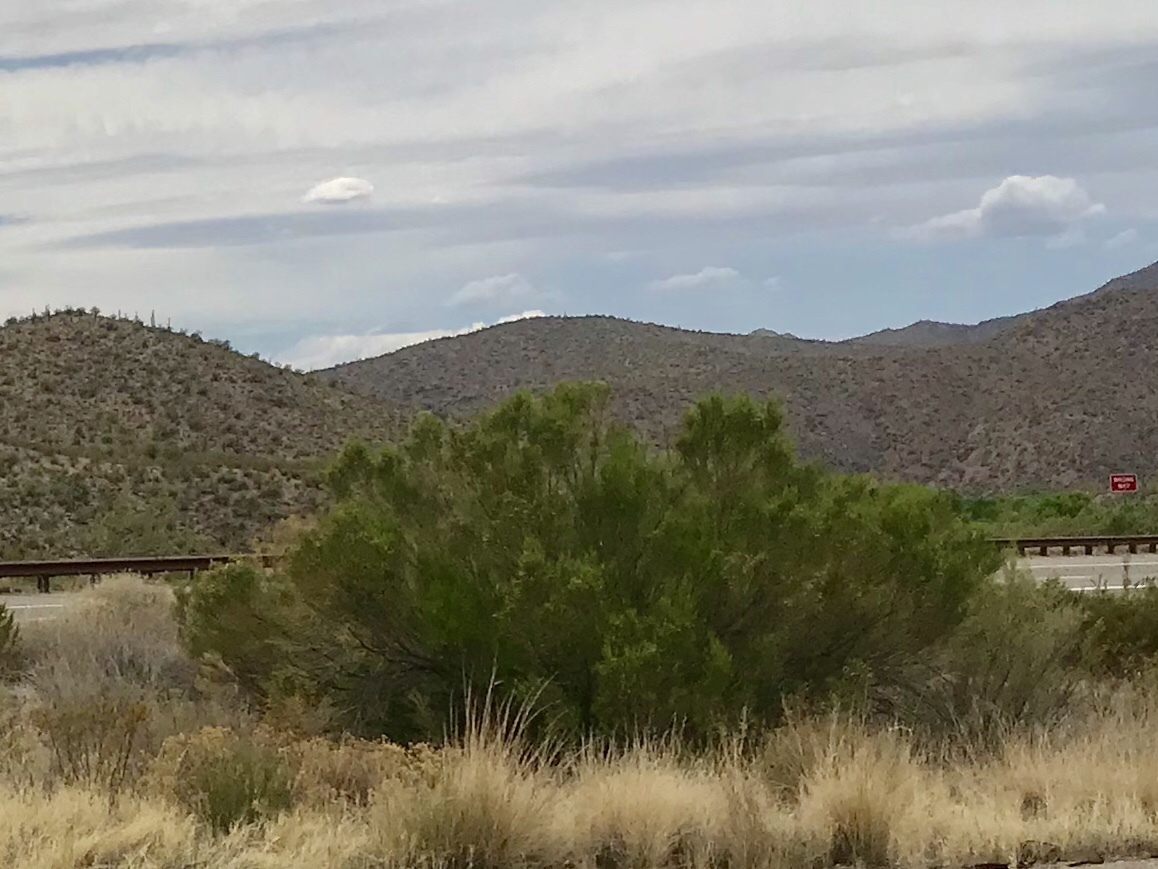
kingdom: Plantae
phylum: Tracheophyta
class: Magnoliopsida
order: Asterales
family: Asteraceae
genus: Baccharis
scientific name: Baccharis sarothroides
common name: Desert-broom
